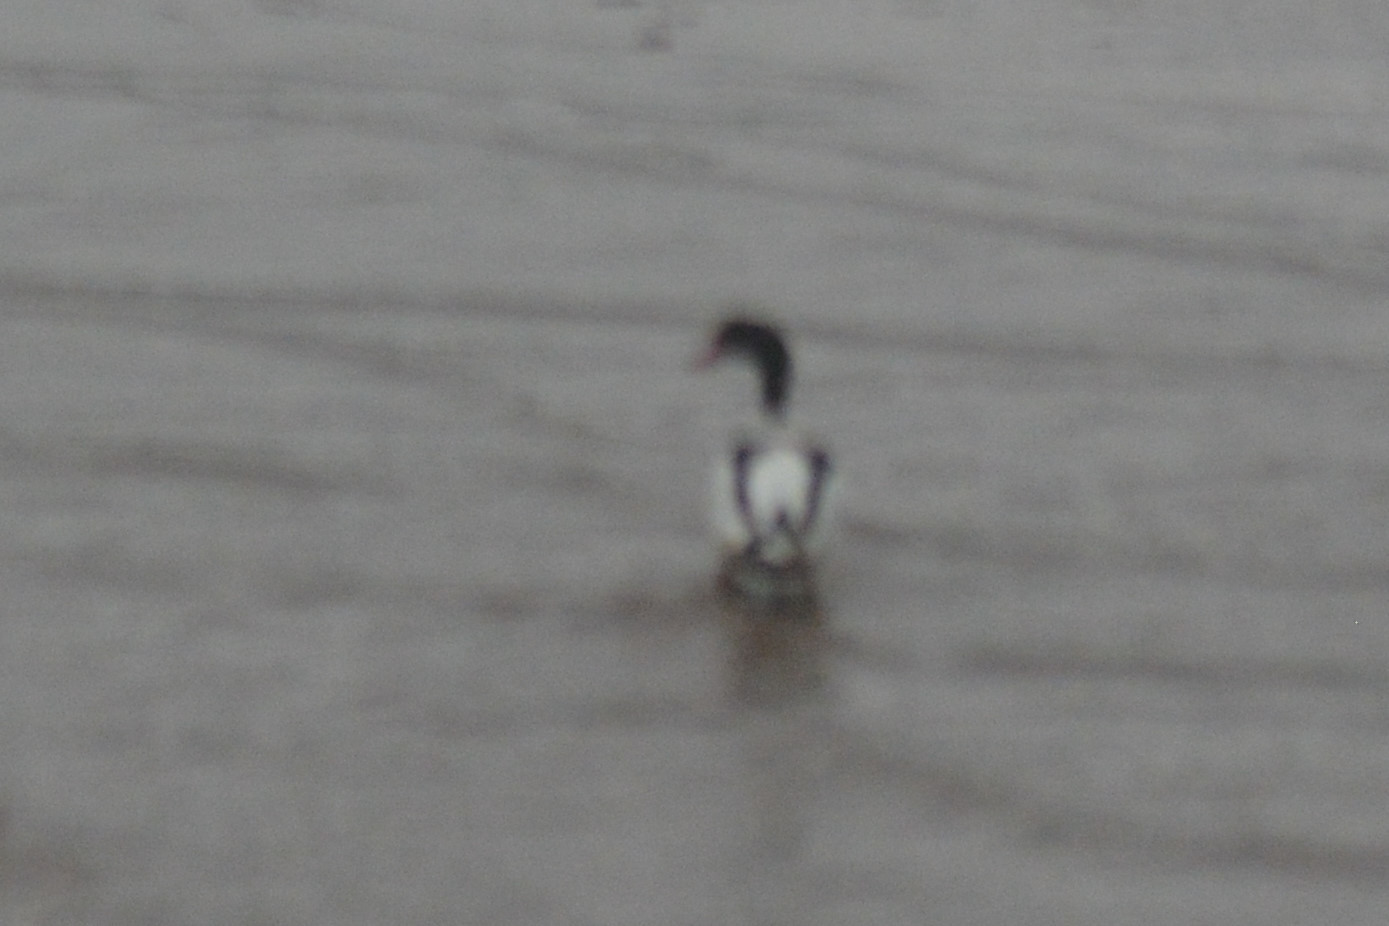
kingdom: Animalia
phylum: Chordata
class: Aves
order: Anseriformes
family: Anatidae
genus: Tadorna
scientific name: Tadorna tadorna
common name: Common shelduck
